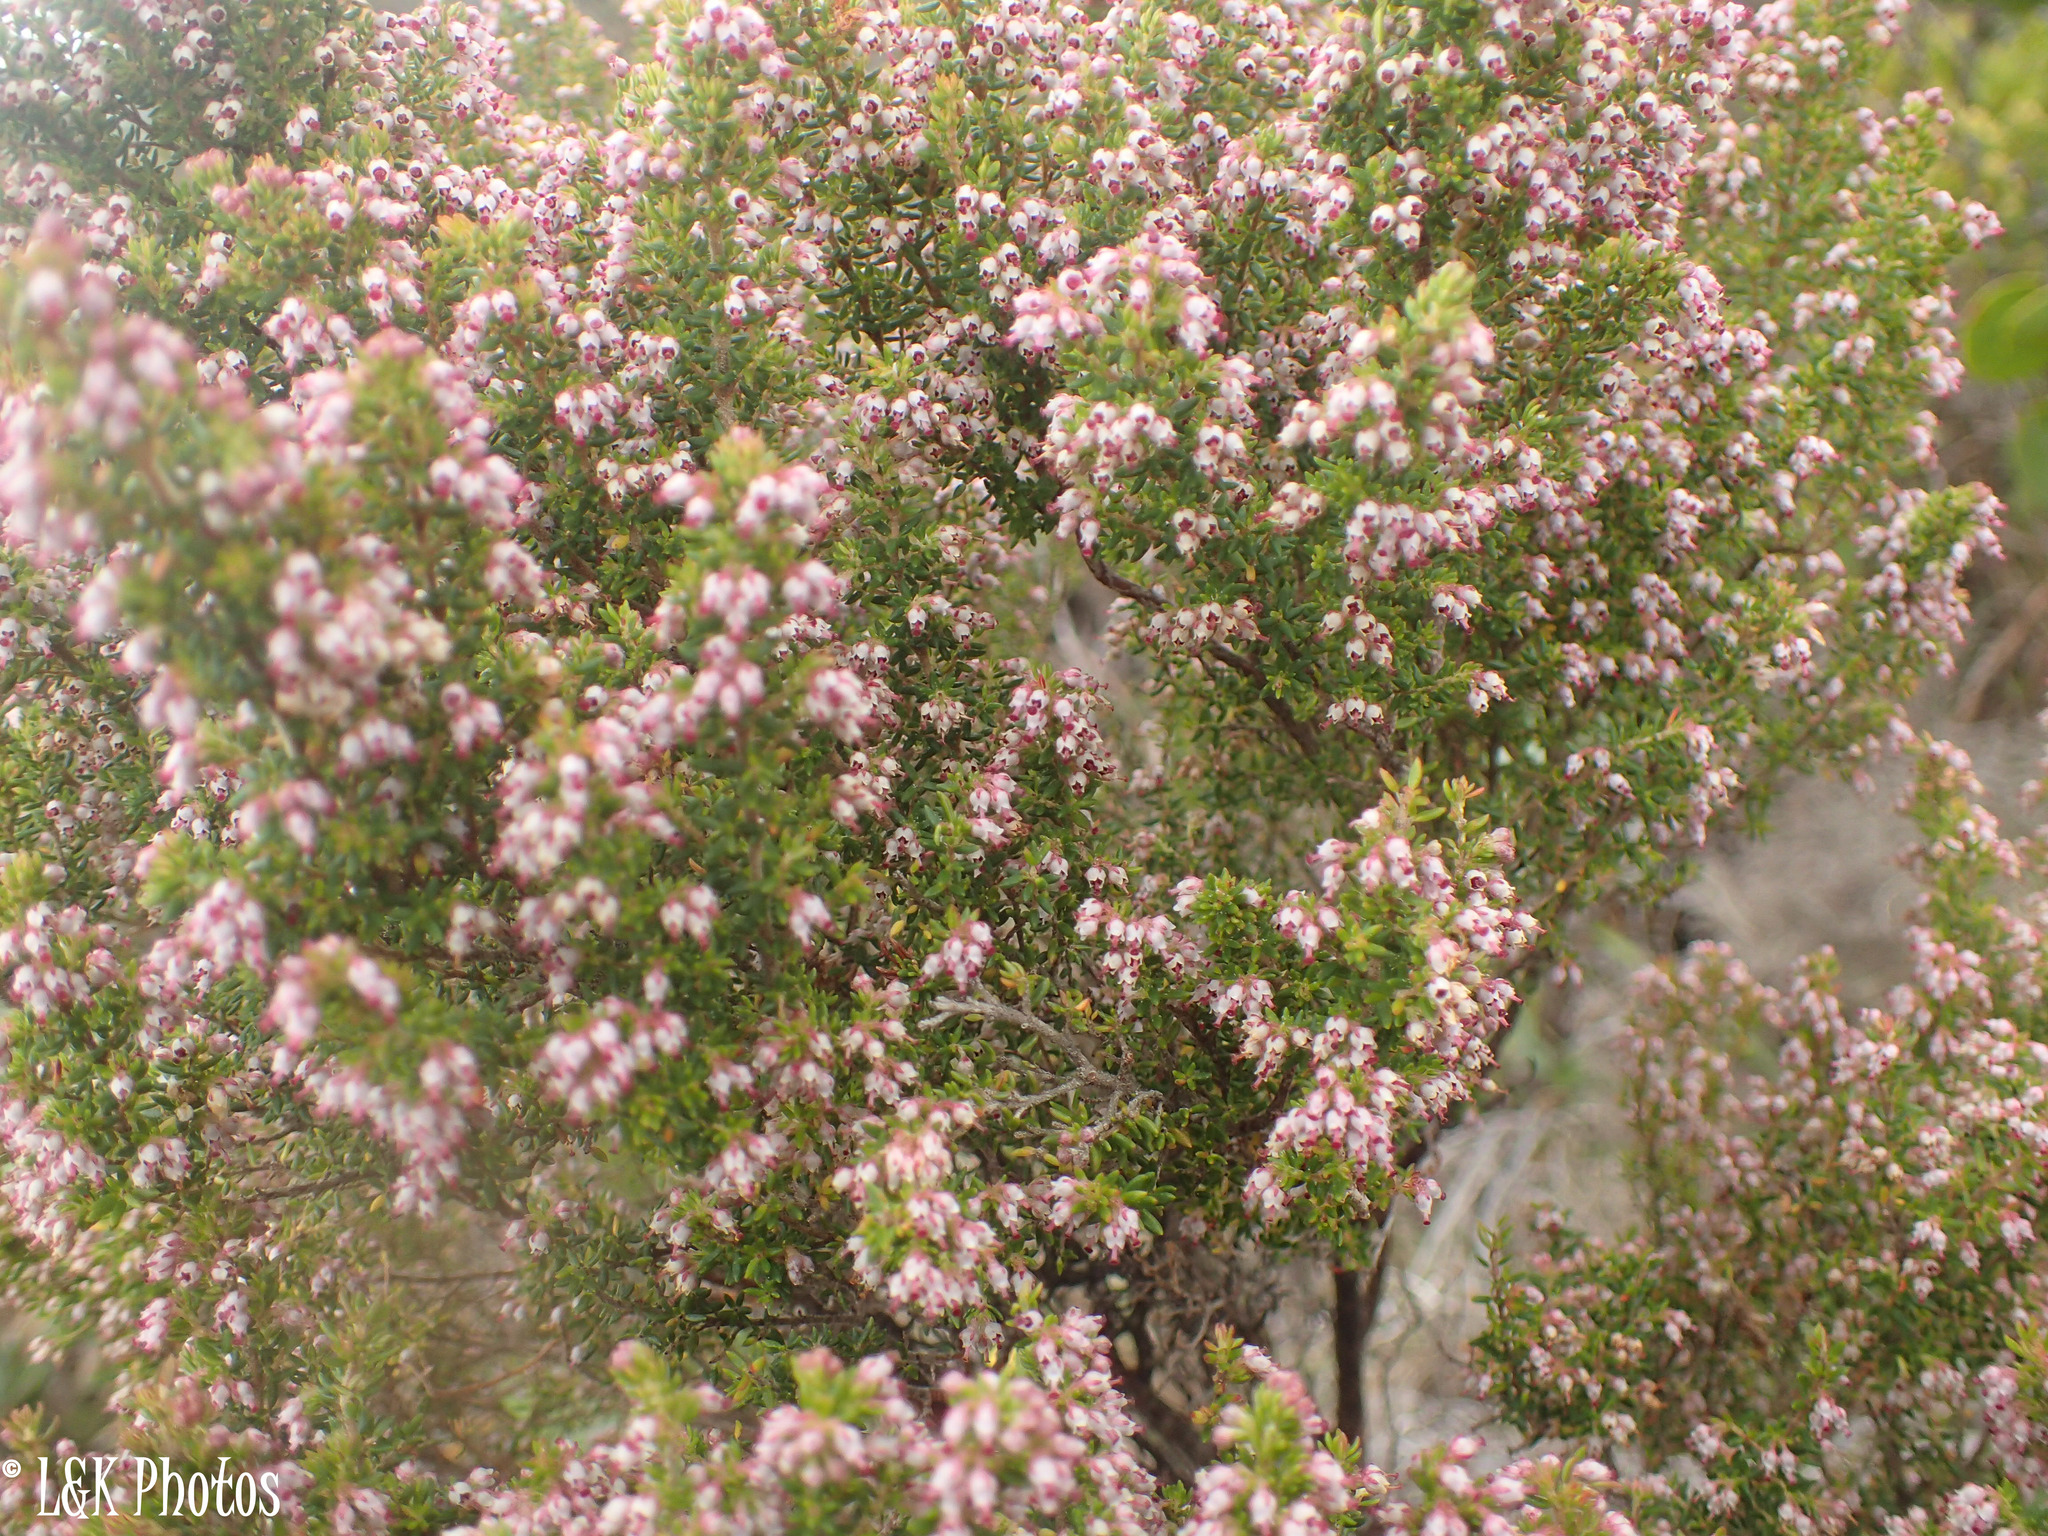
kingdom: Plantae
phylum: Tracheophyta
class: Magnoliopsida
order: Ericales
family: Ericaceae
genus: Erica
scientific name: Erica hispidula
